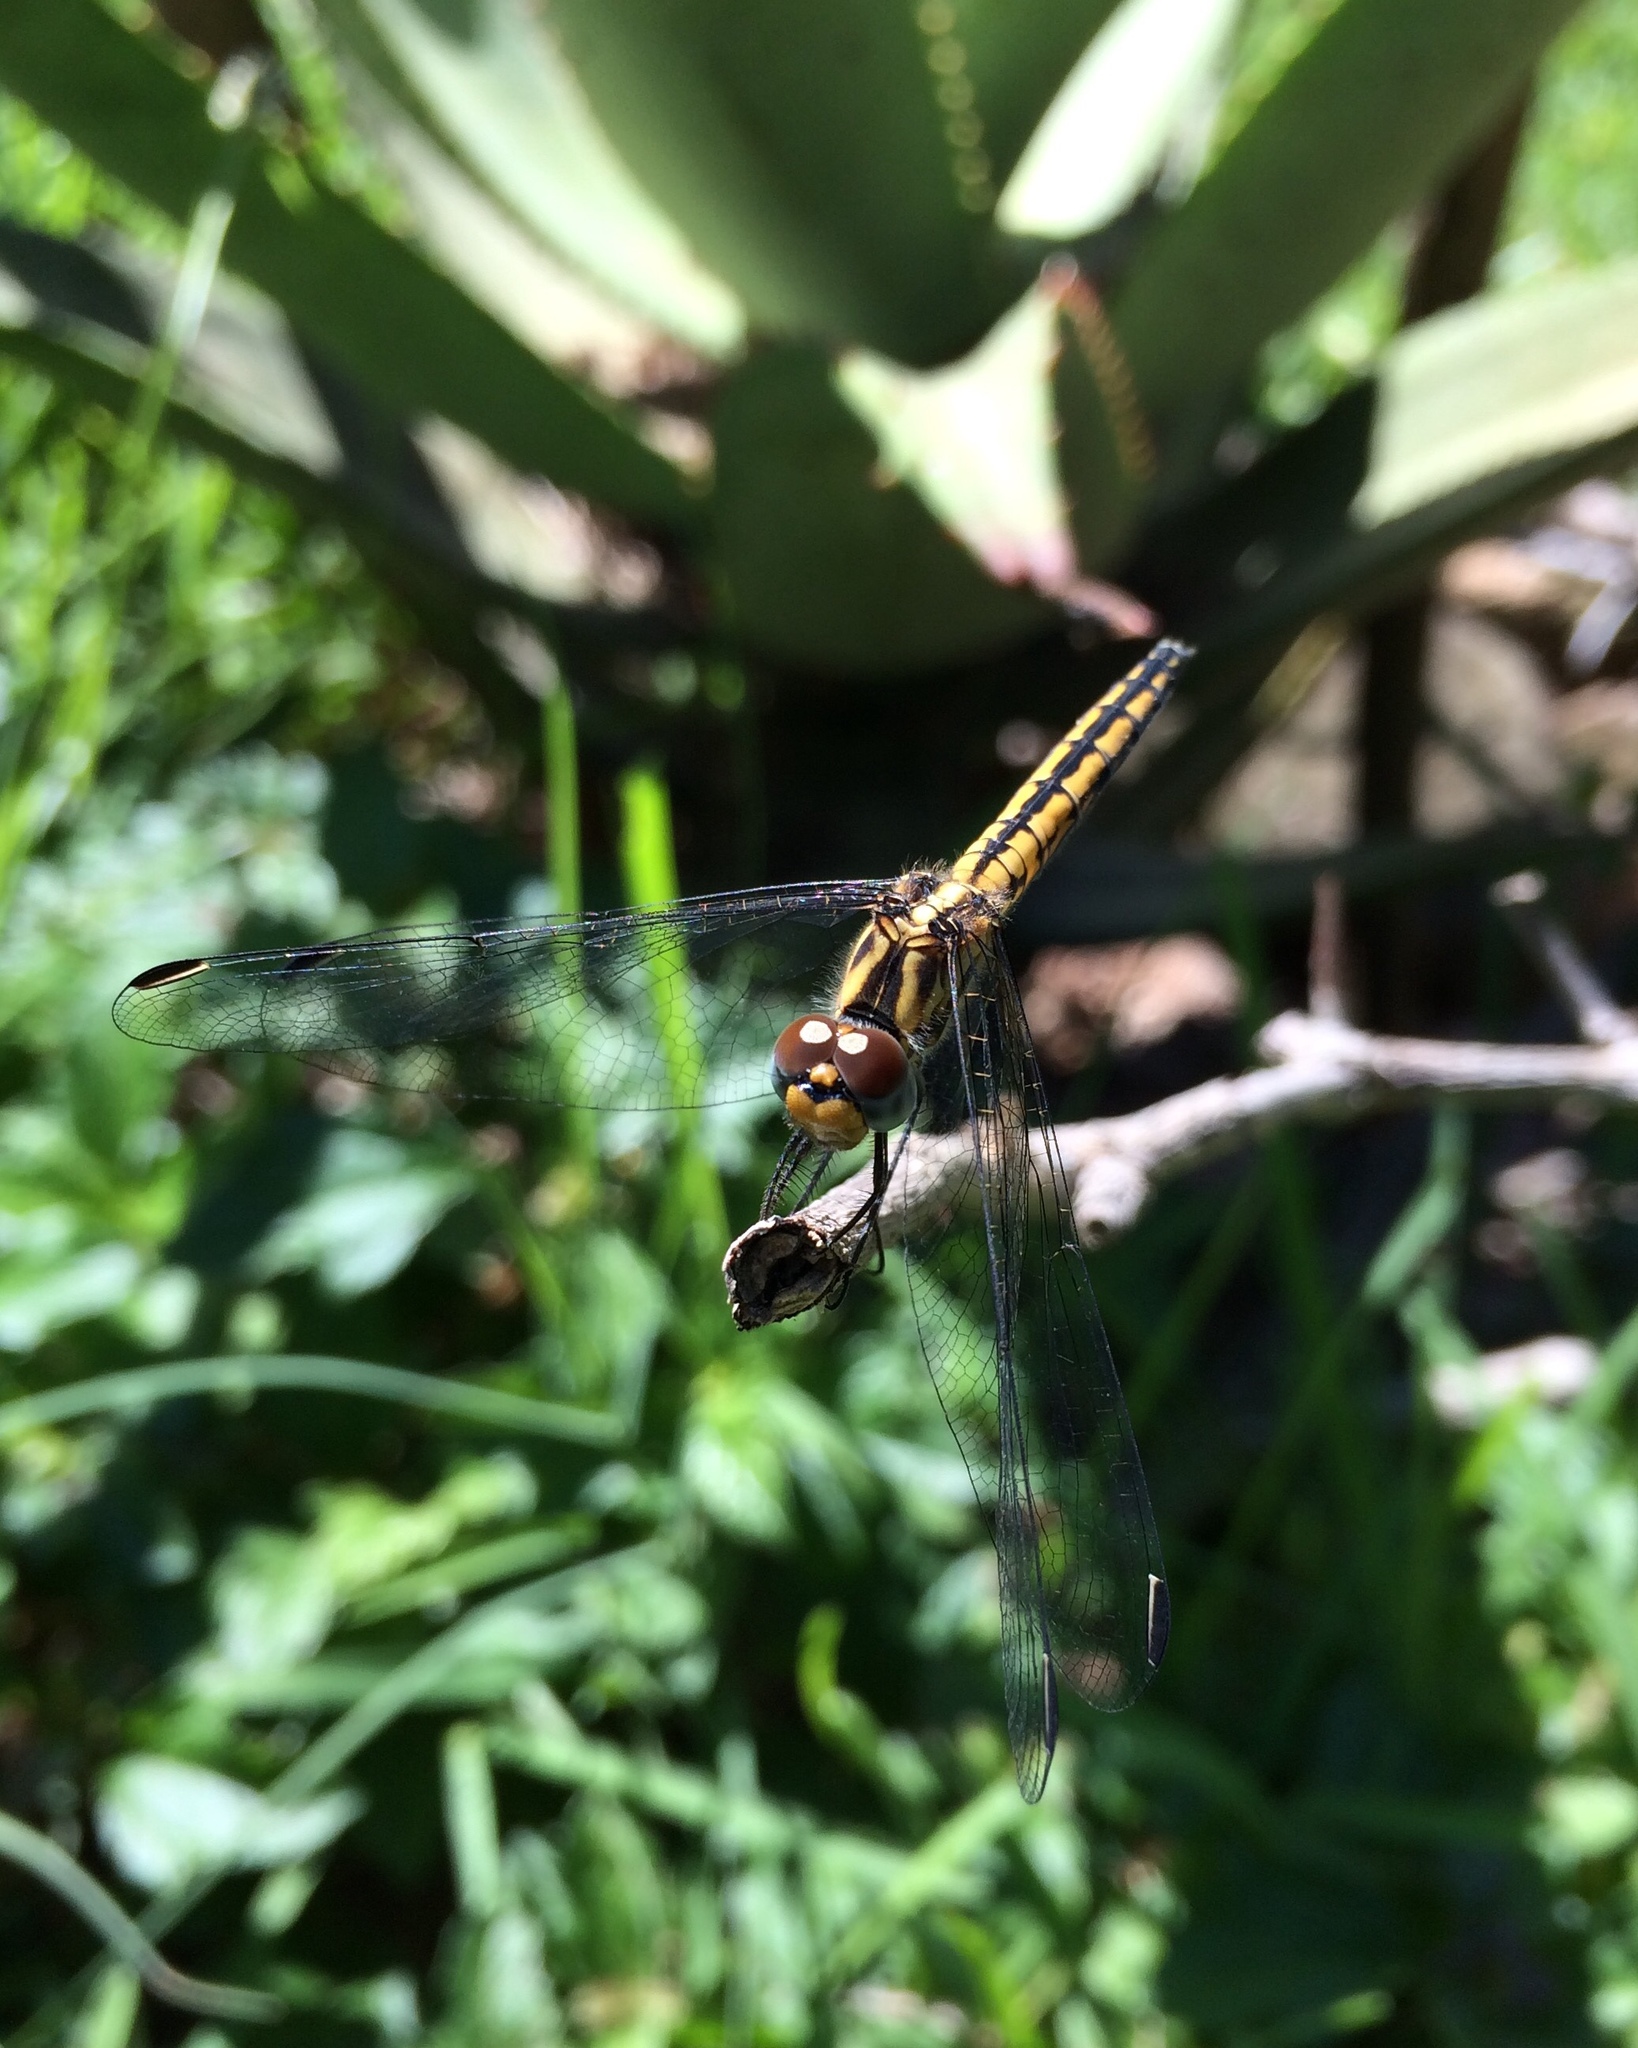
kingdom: Animalia
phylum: Arthropoda
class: Insecta
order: Odonata
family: Libellulidae
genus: Trithemis
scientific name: Trithemis dorsalis
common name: Highland dropwing
